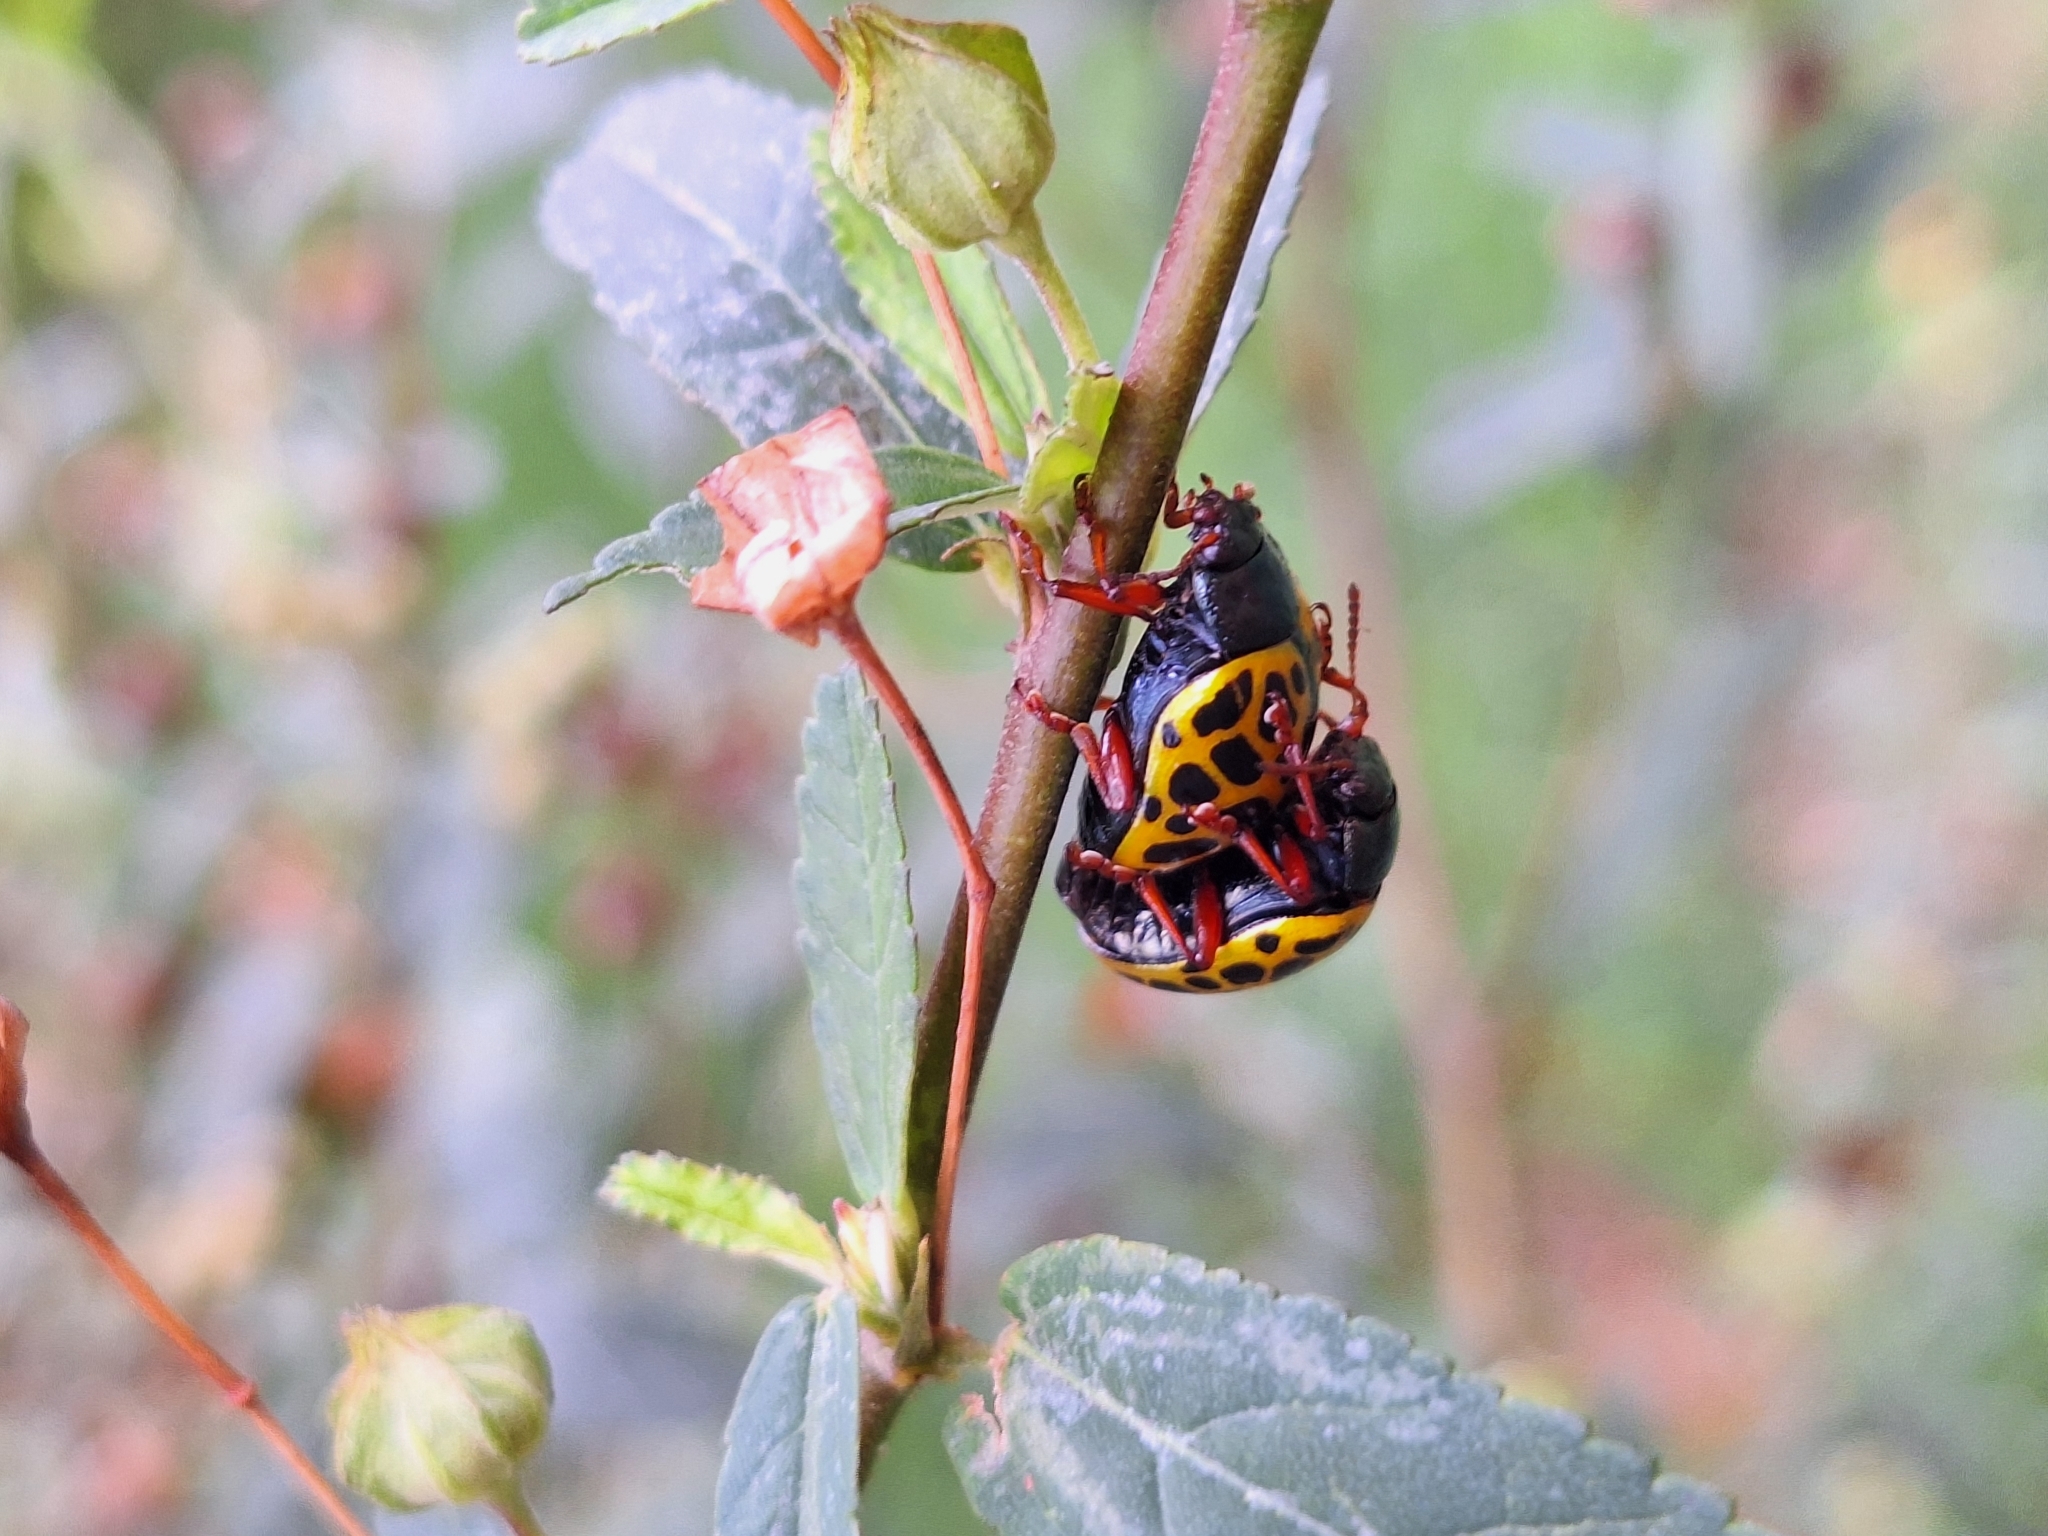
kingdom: Animalia
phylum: Arthropoda
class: Insecta
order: Coleoptera
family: Chrysomelidae
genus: Calligrapha
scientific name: Calligrapha polyspila
